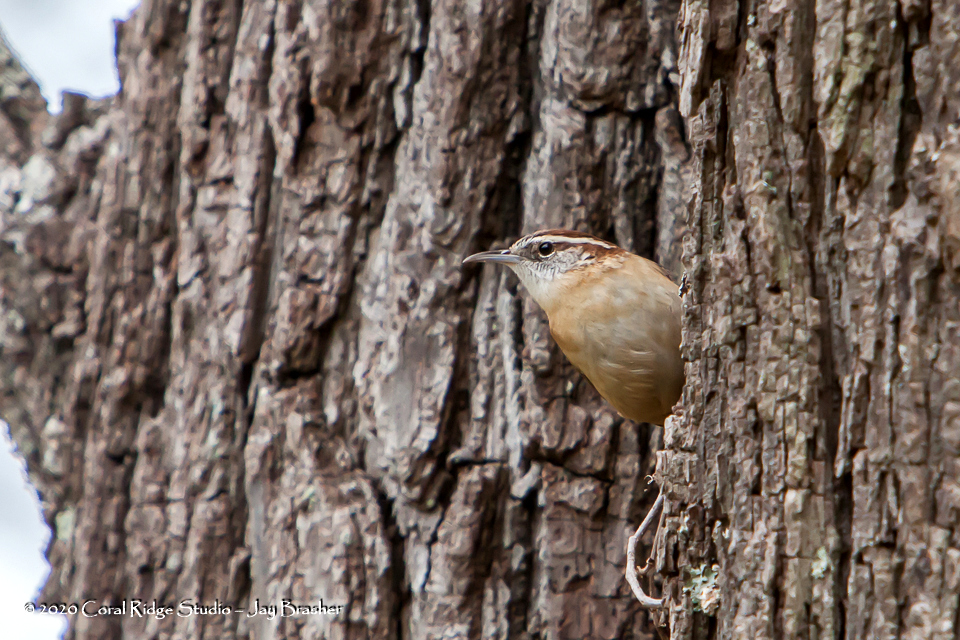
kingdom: Animalia
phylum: Chordata
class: Aves
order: Passeriformes
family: Troglodytidae
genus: Thryothorus
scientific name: Thryothorus ludovicianus
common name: Carolina wren
